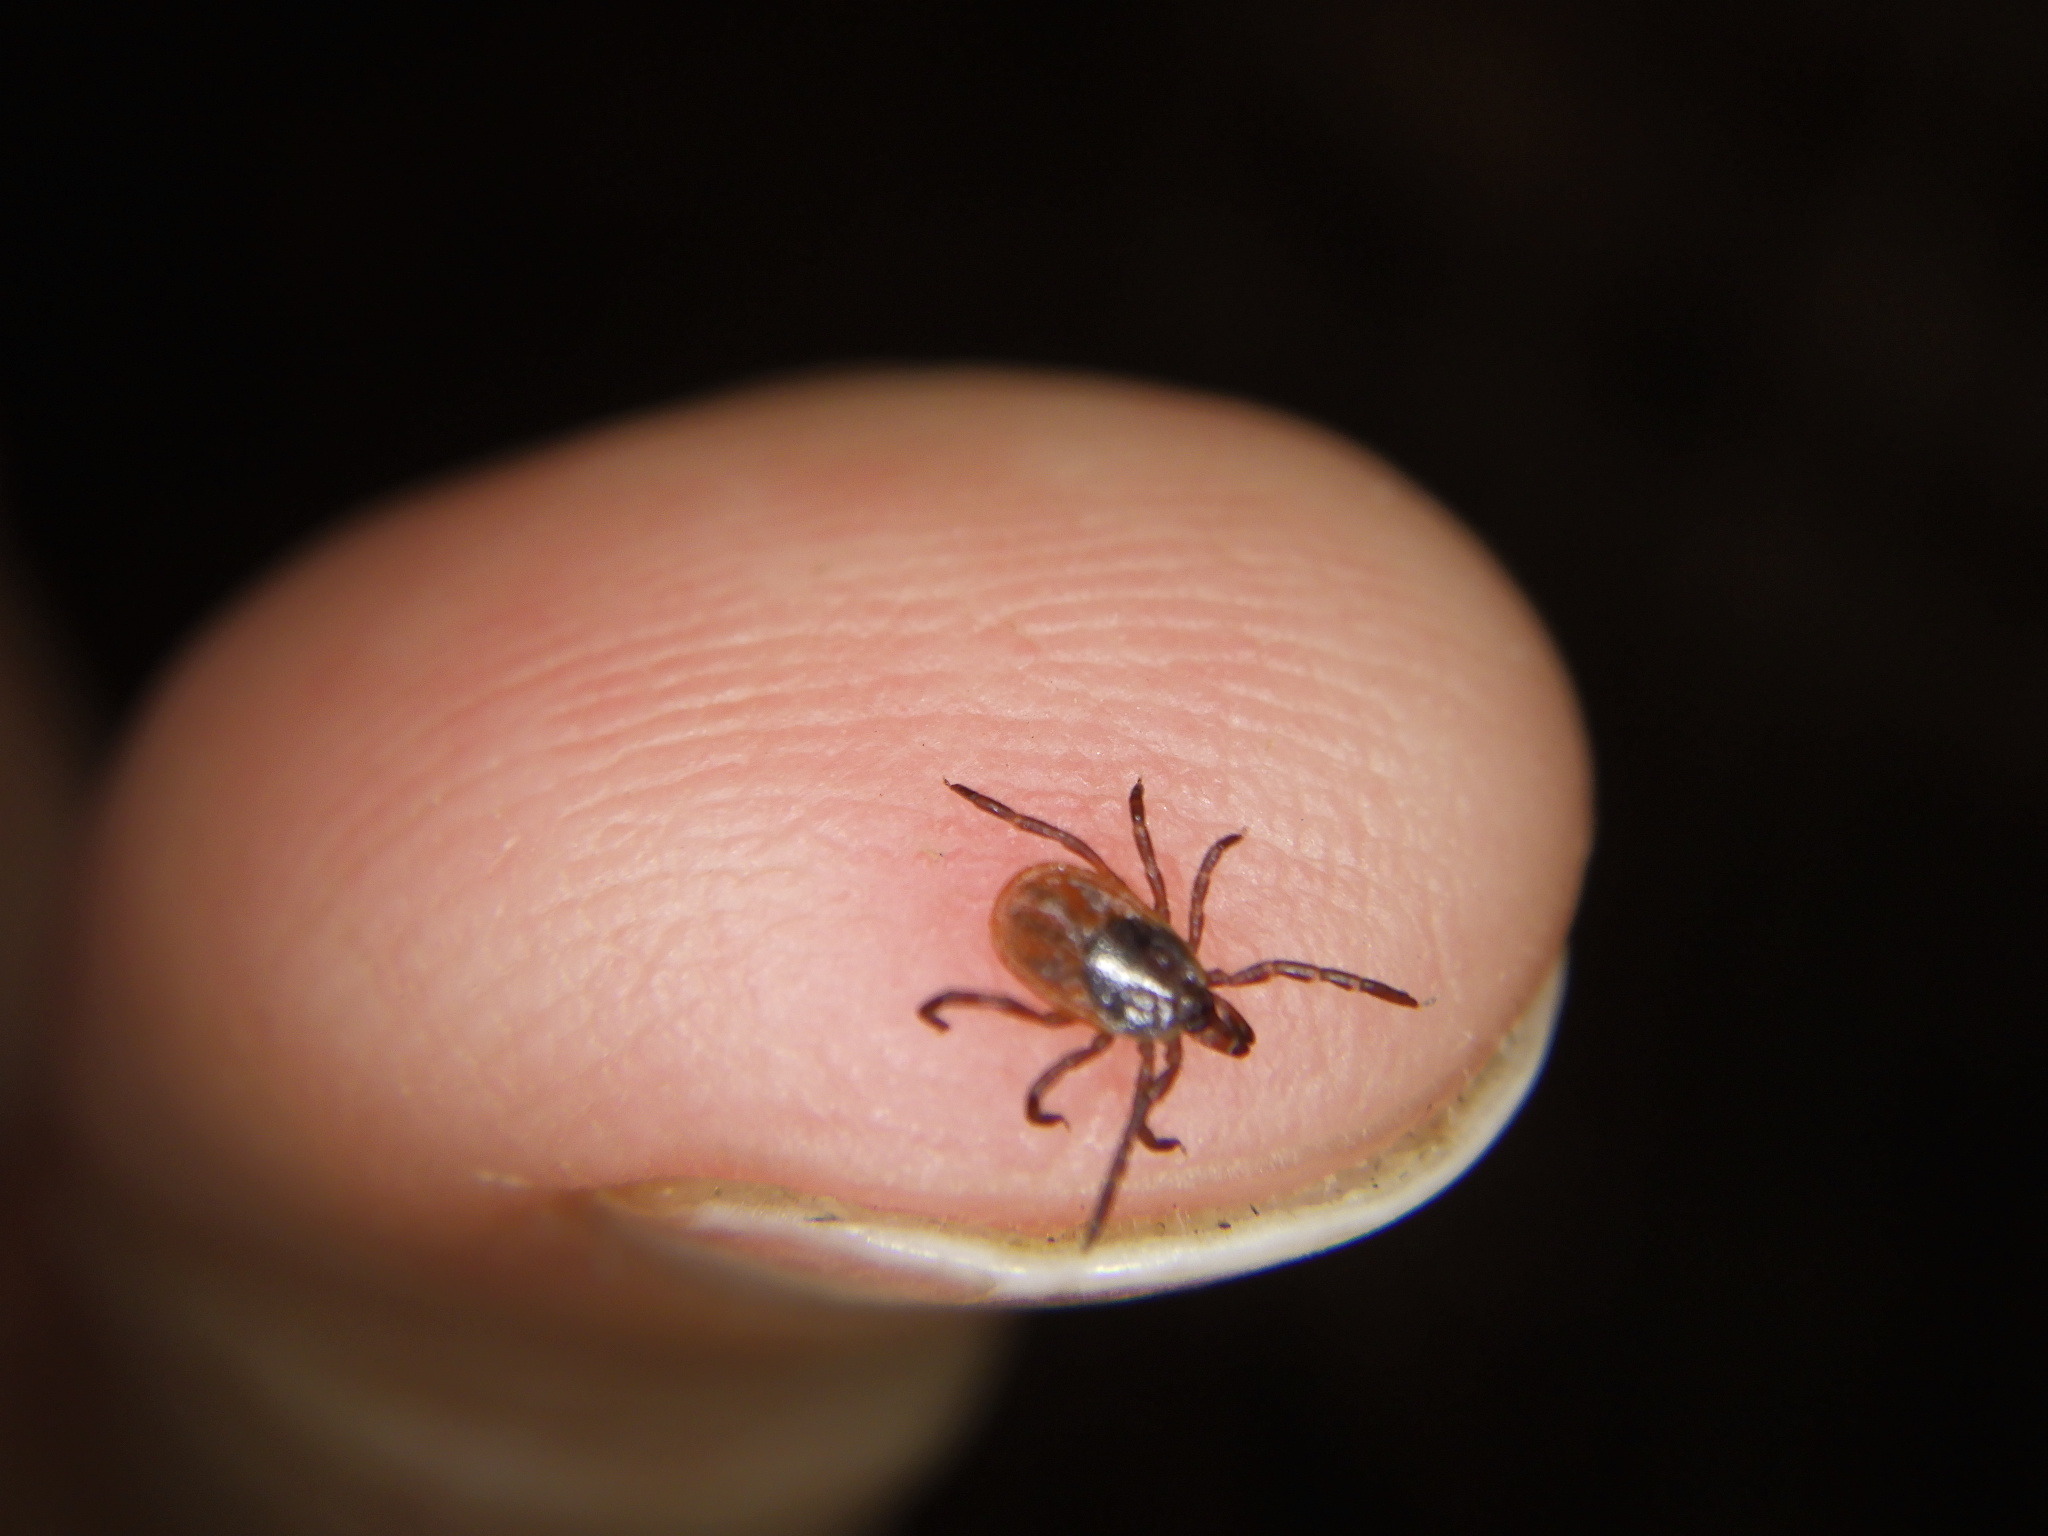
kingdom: Animalia
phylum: Arthropoda
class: Arachnida
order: Ixodida
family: Ixodidae
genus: Ixodes
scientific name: Ixodes scapularis
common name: Black legged tick
